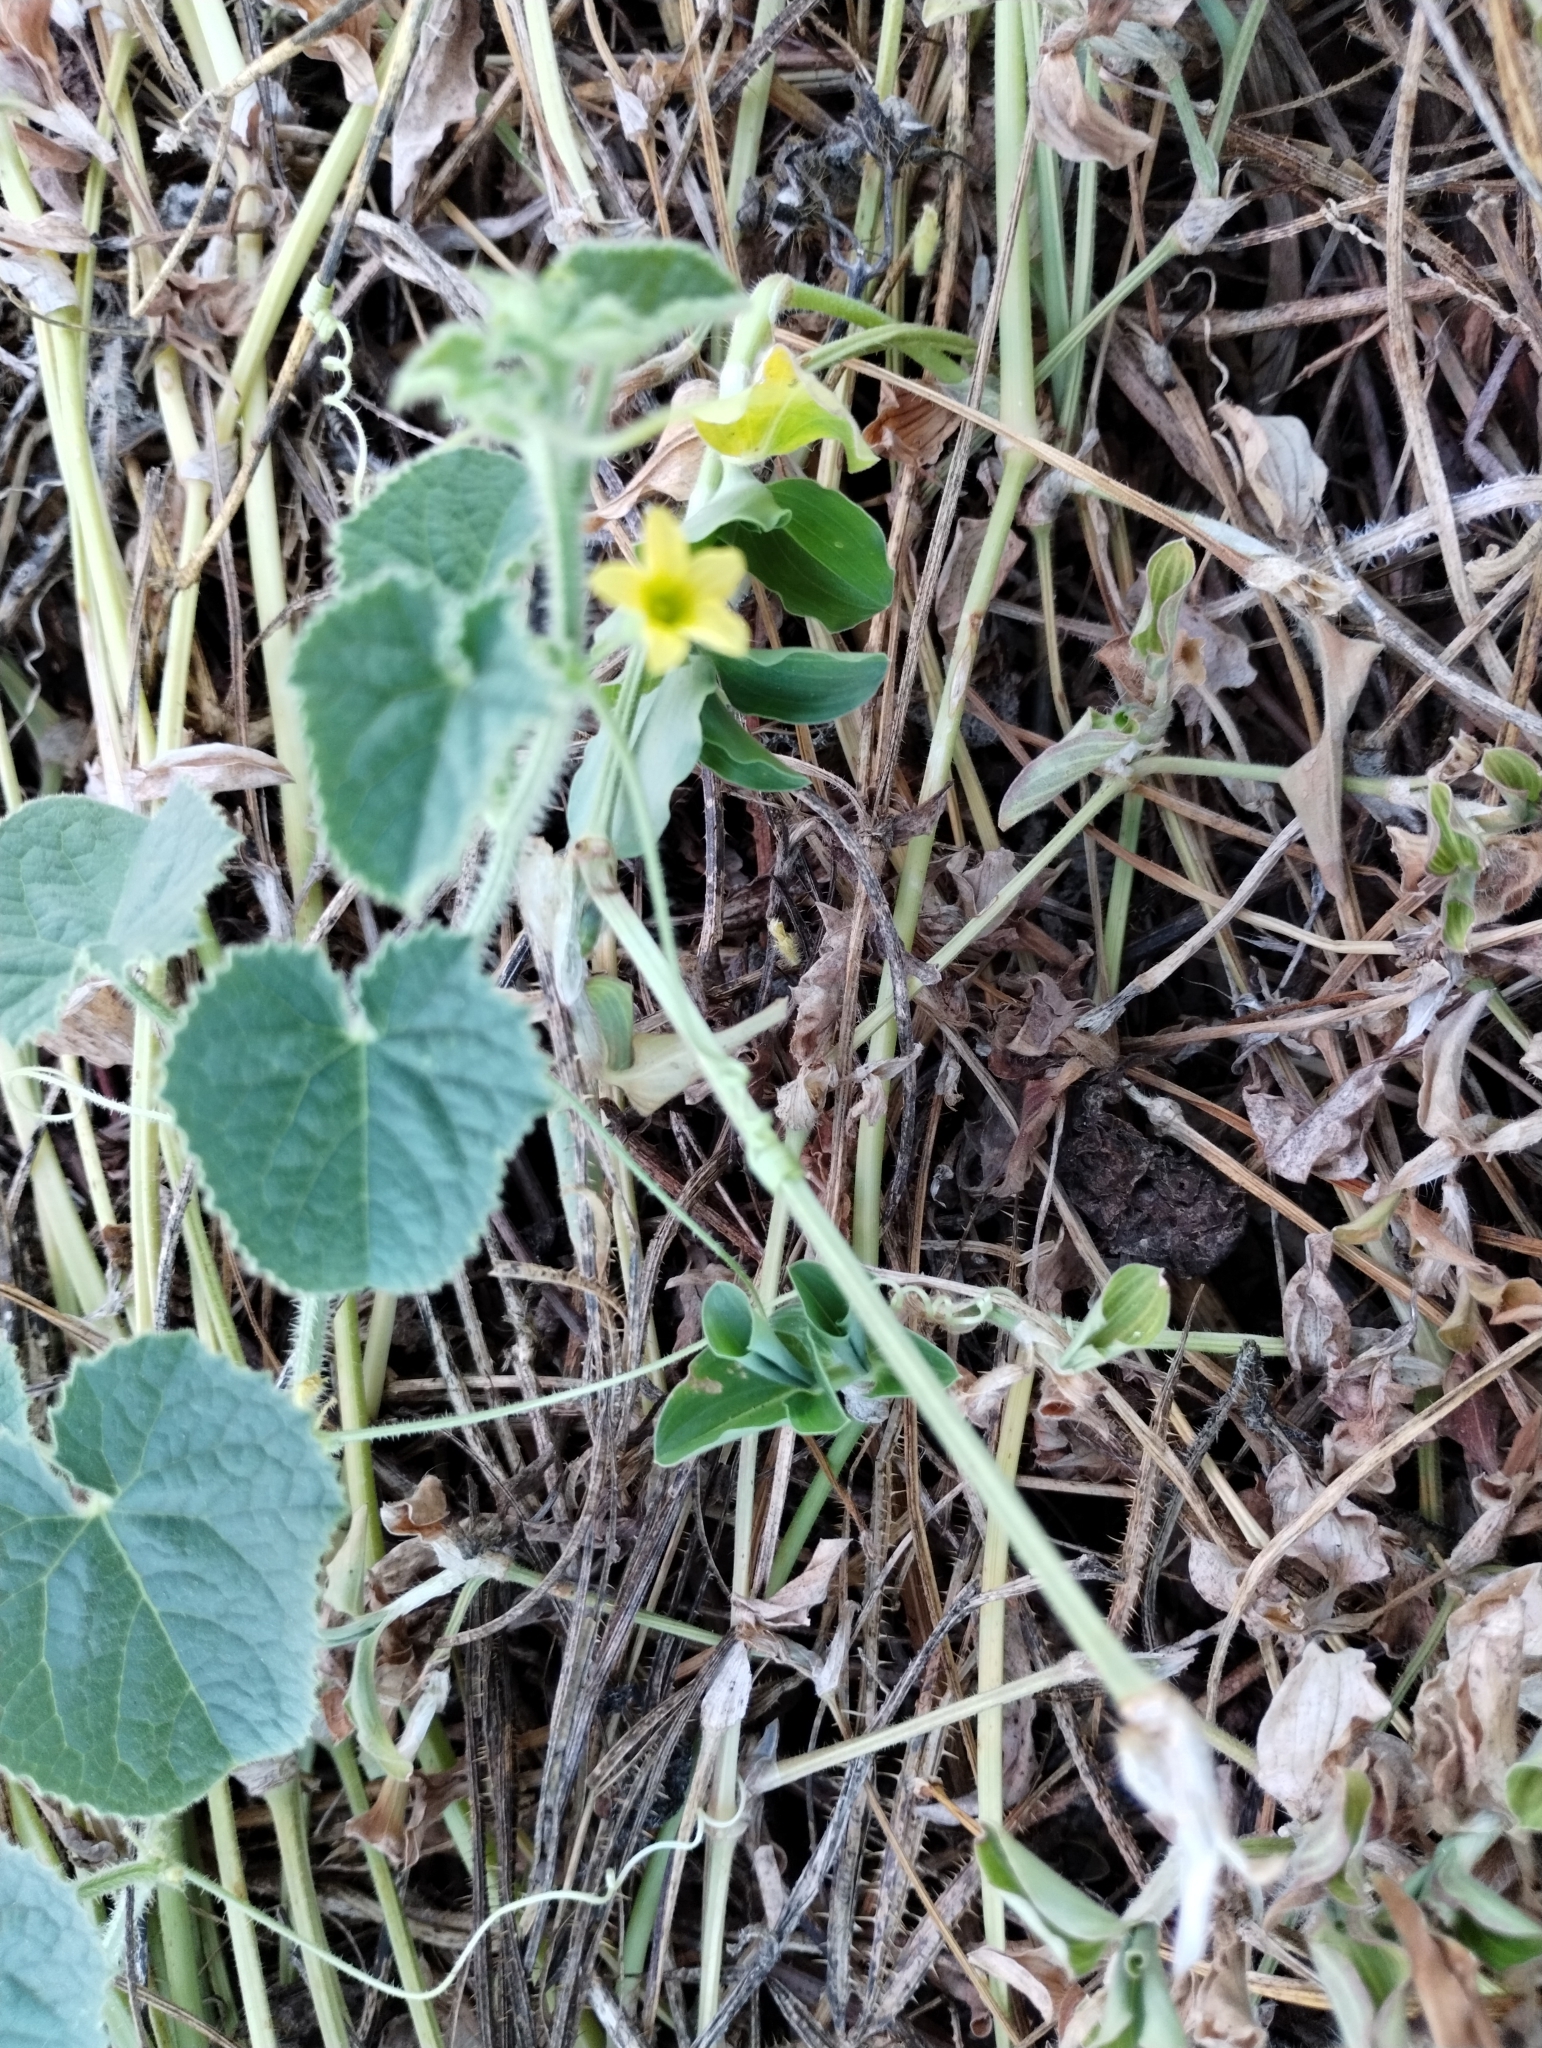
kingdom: Plantae
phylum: Tracheophyta
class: Magnoliopsida
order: Cucurbitales
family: Cucurbitaceae
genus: Cucumis
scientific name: Cucumis dipsaceus
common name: Hedgehog gourd
